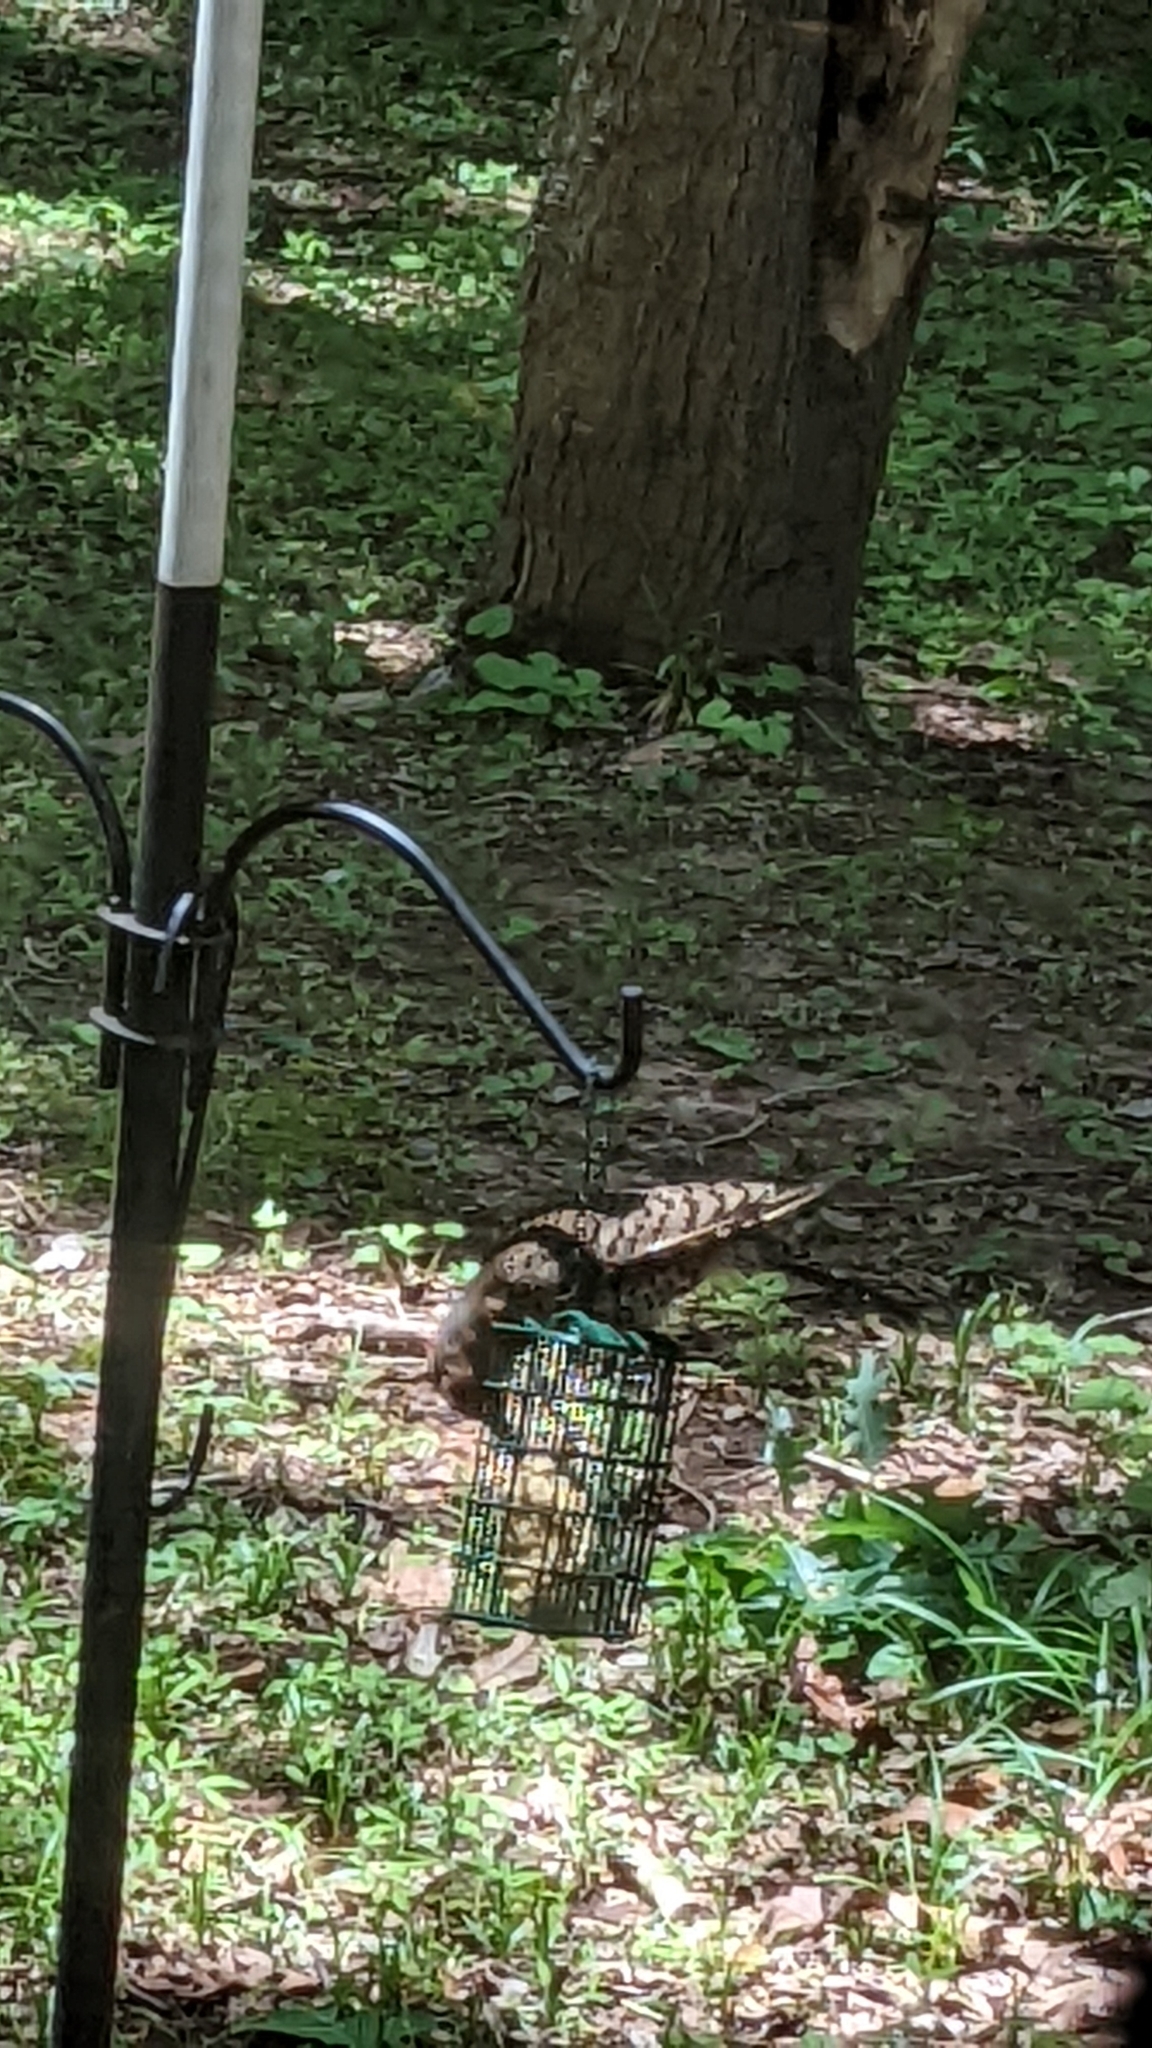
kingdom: Animalia
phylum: Chordata
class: Aves
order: Piciformes
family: Picidae
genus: Colaptes
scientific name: Colaptes auratus
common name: Northern flicker
